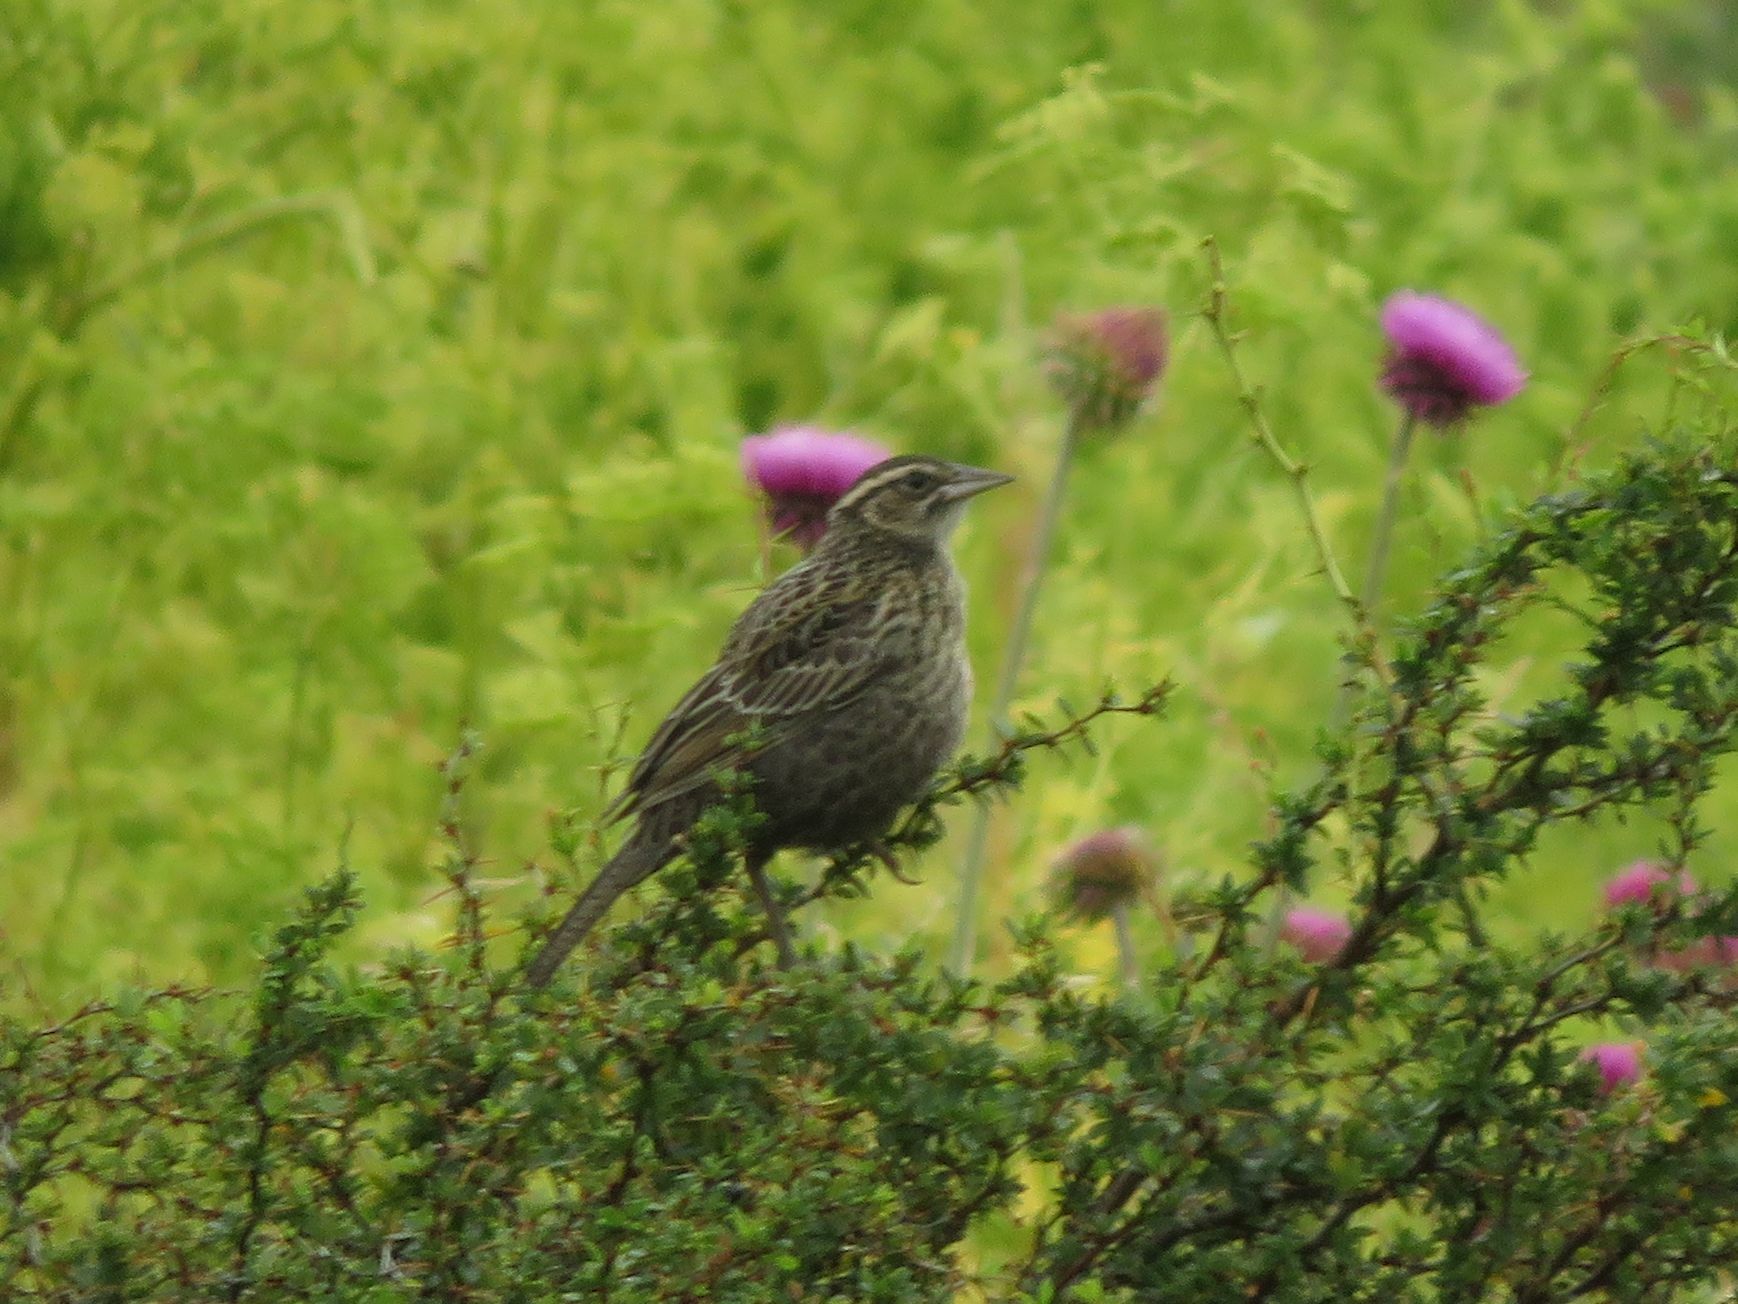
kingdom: Animalia
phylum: Chordata
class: Aves
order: Passeriformes
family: Icteridae
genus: Sturnella
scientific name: Sturnella loyca
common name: Long-tailed meadowlark
